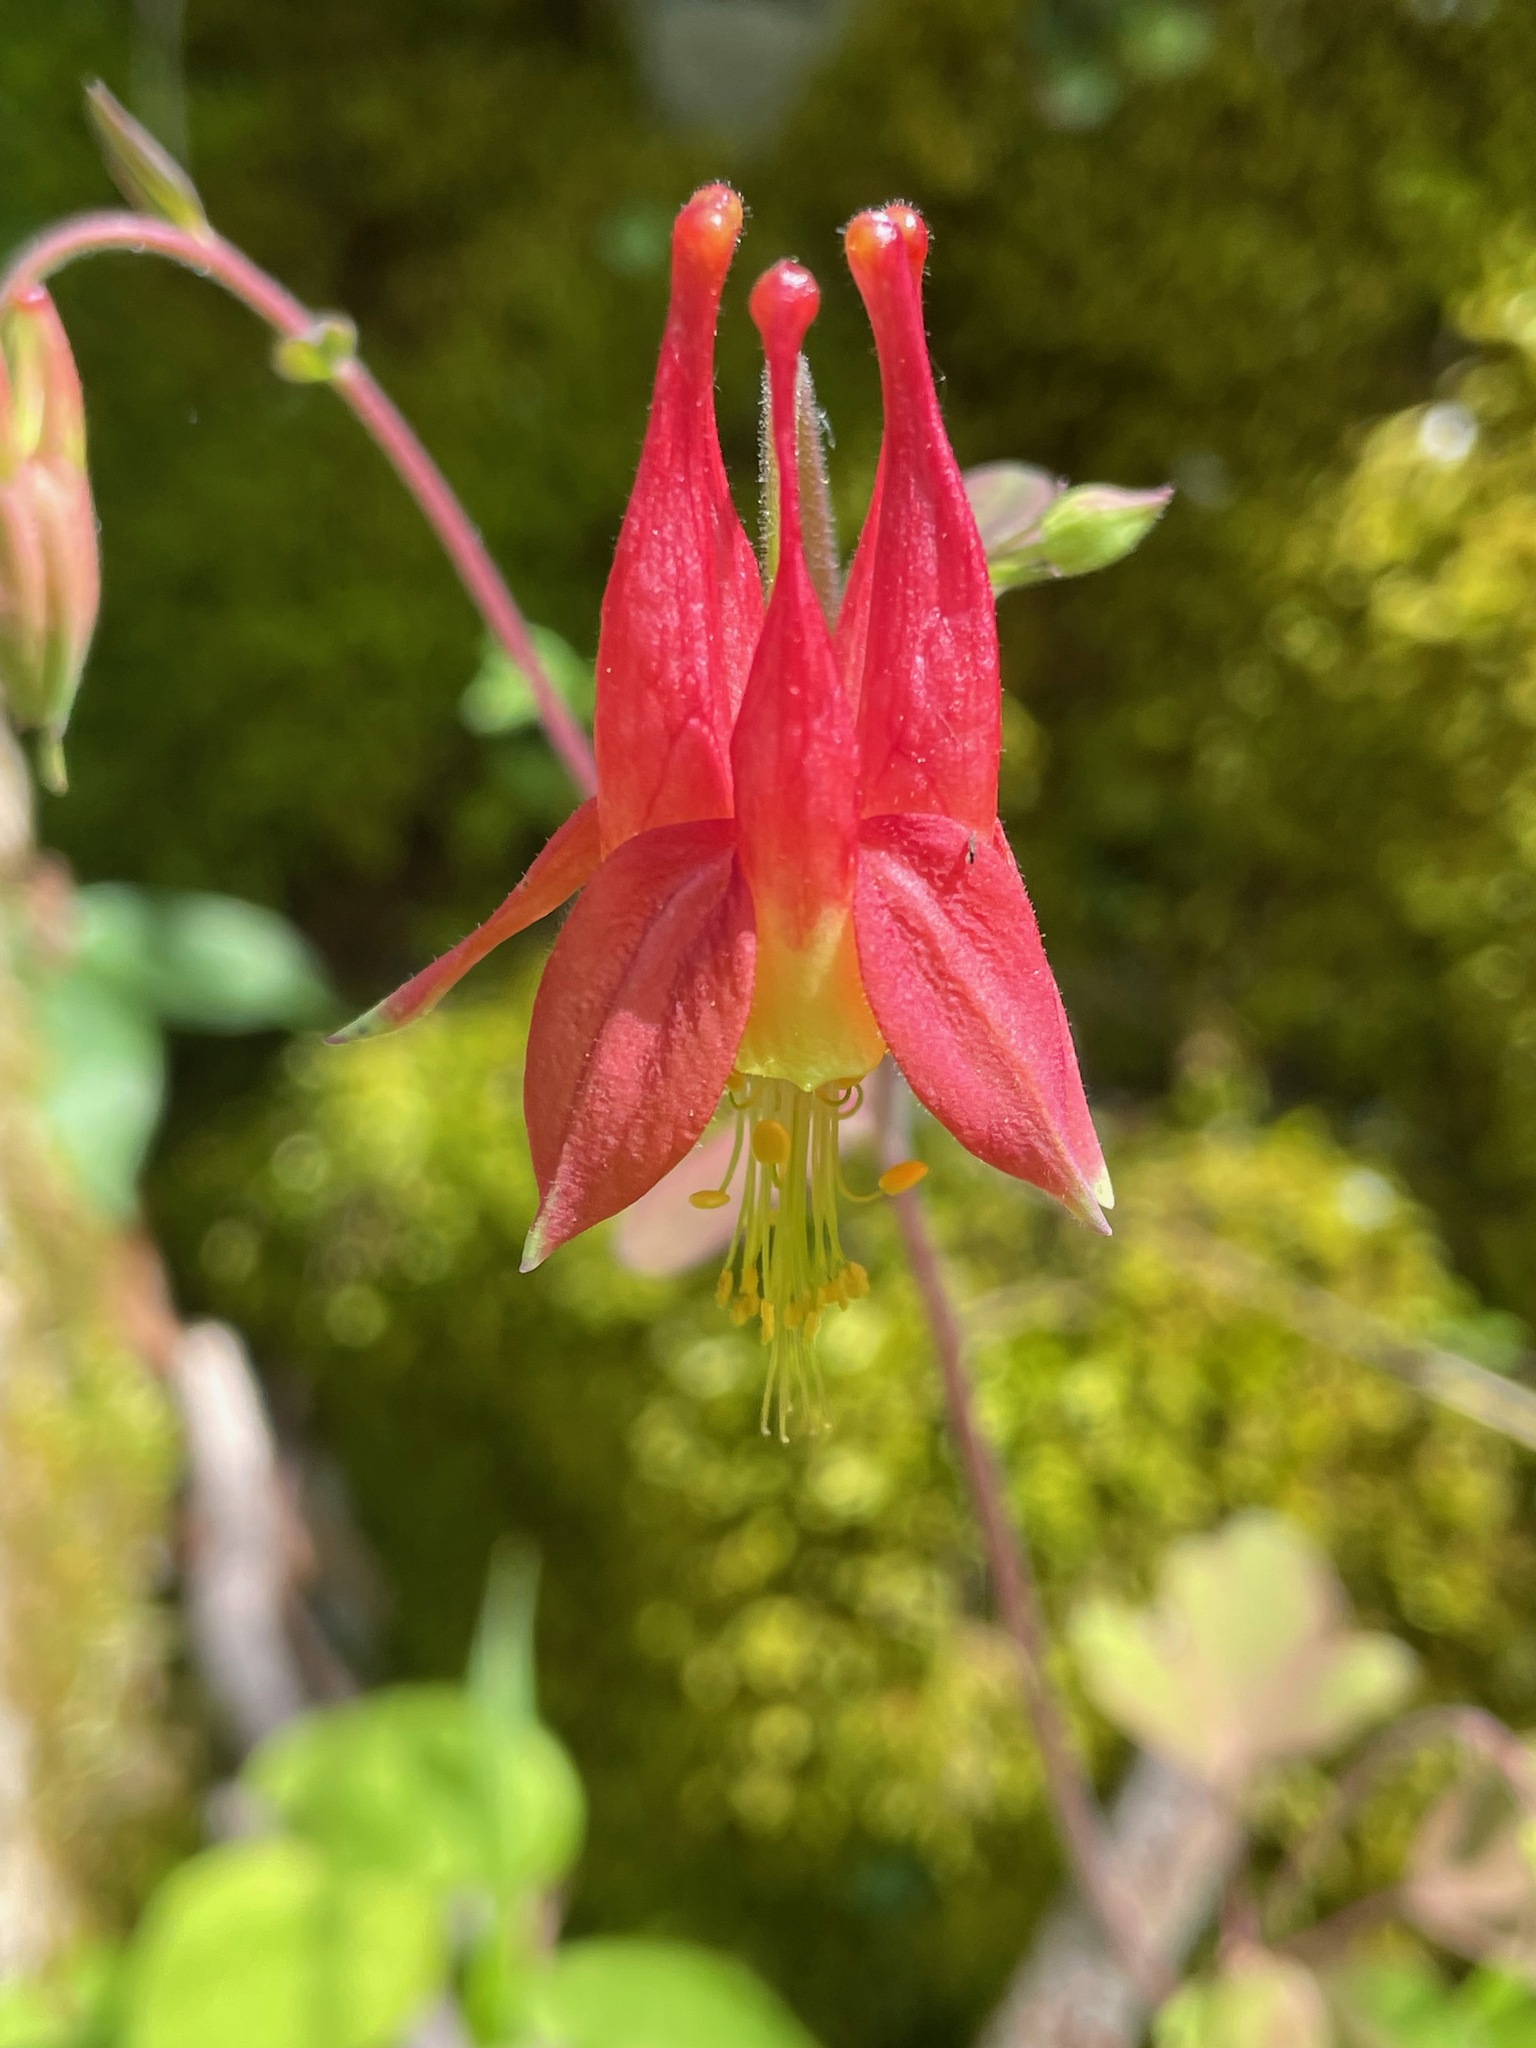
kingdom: Plantae
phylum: Tracheophyta
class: Magnoliopsida
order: Ranunculales
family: Ranunculaceae
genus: Aquilegia
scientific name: Aquilegia canadensis
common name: American columbine
